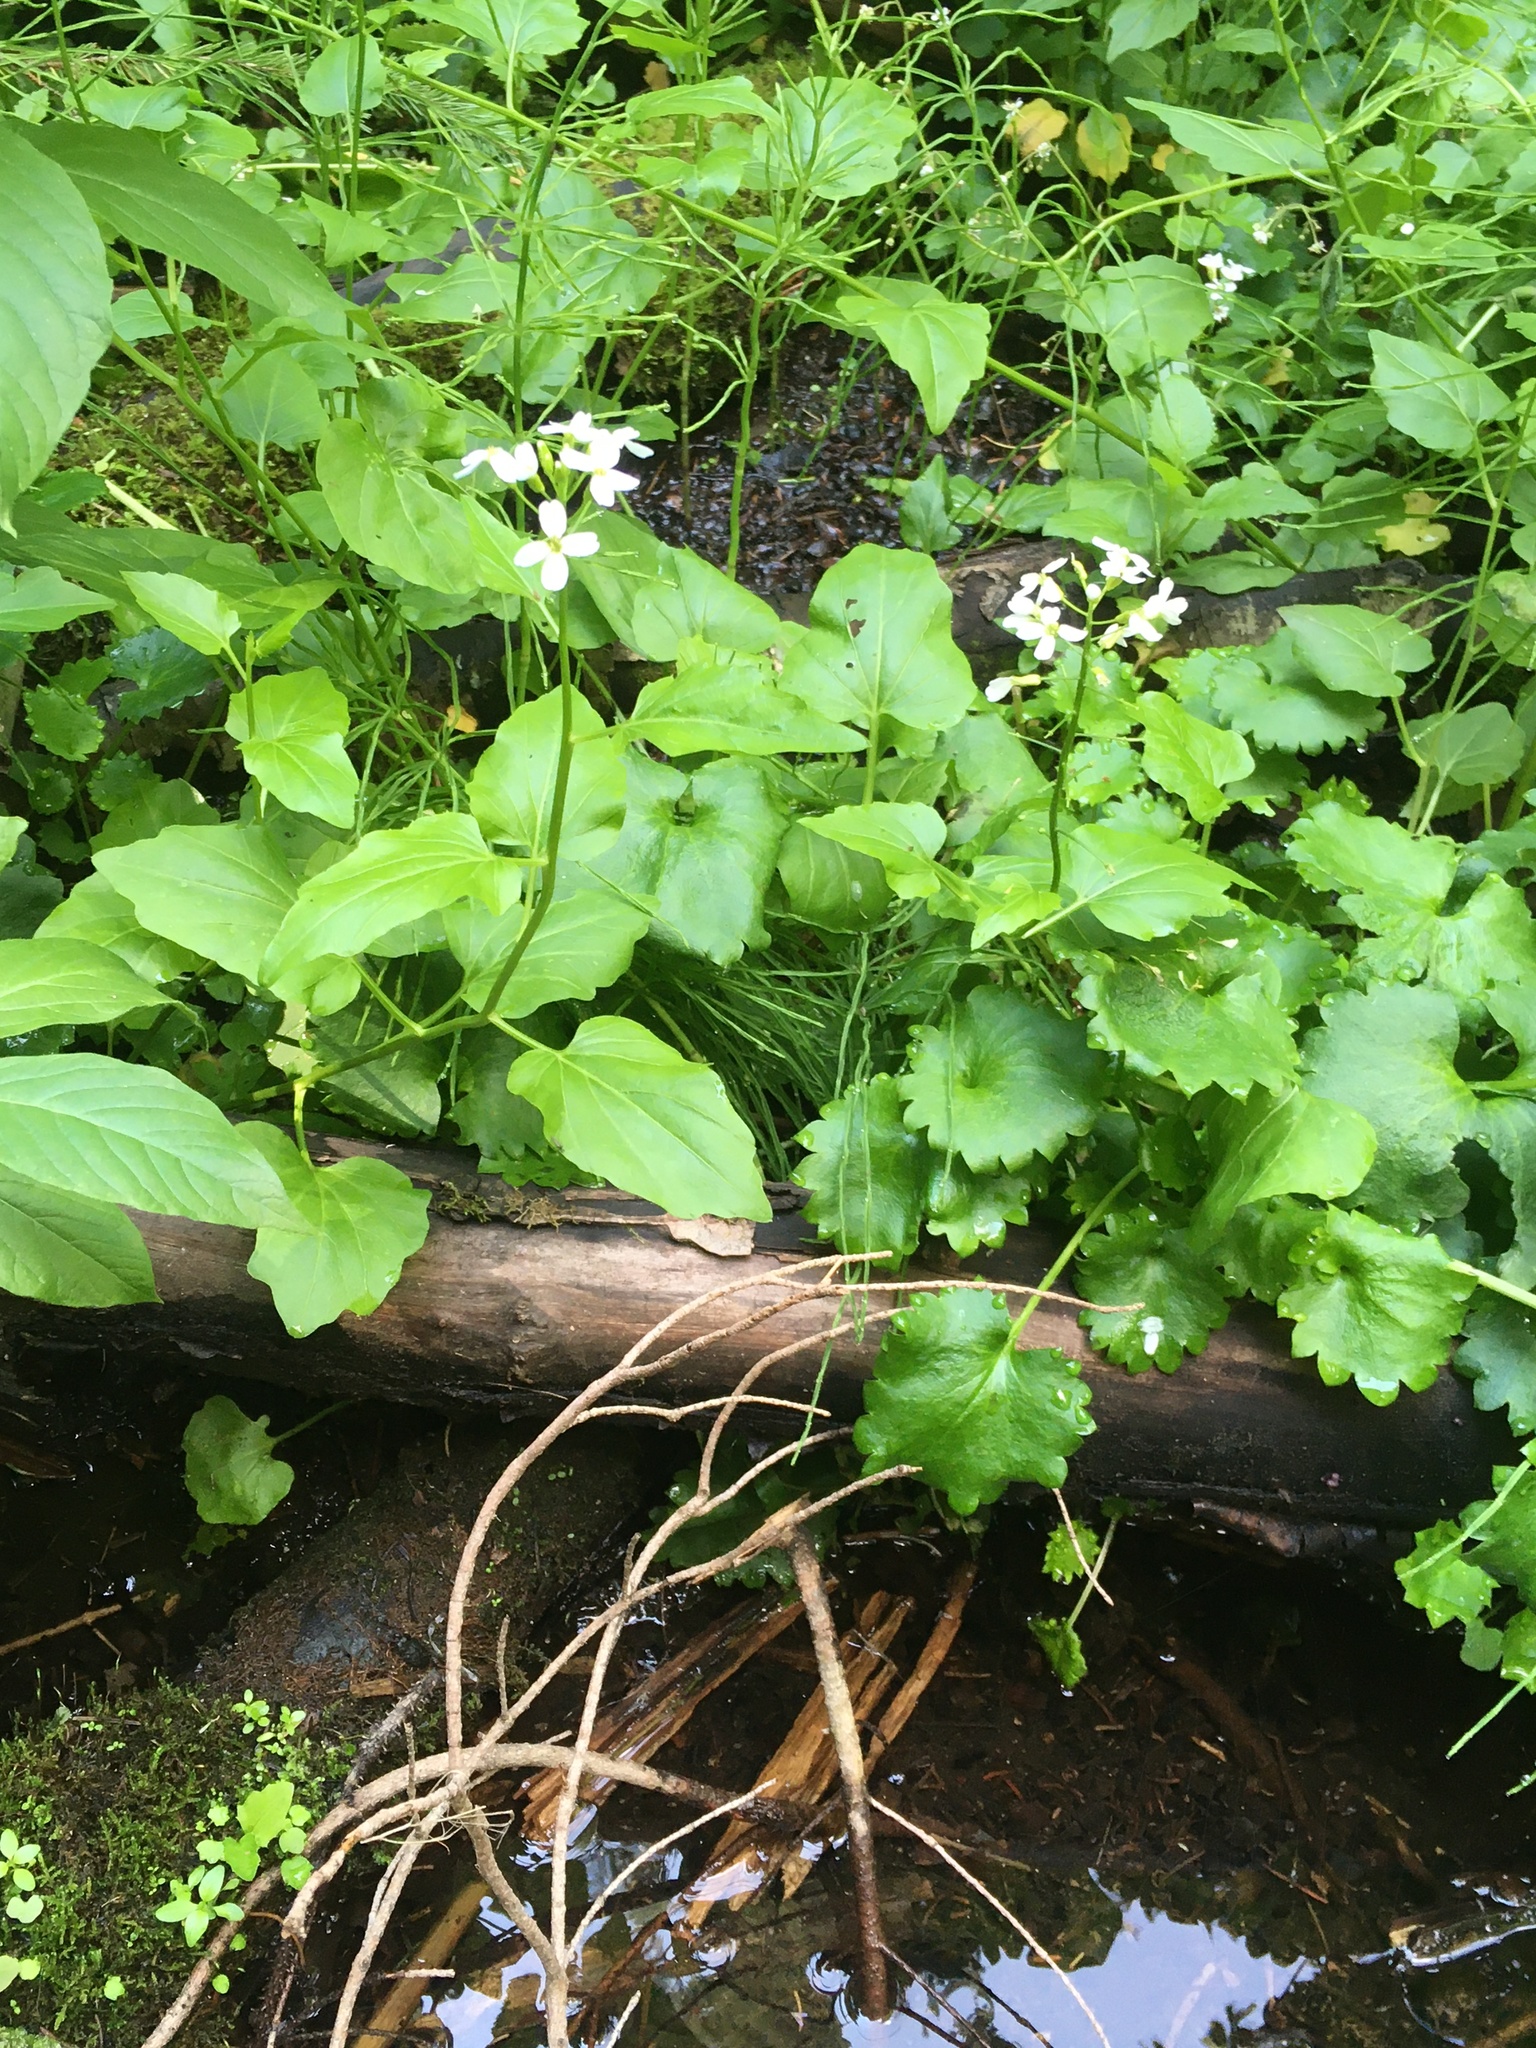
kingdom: Plantae
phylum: Tracheophyta
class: Magnoliopsida
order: Brassicales
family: Brassicaceae
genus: Cardamine
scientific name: Cardamine cordifolia
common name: Heart-leaf bittercress
